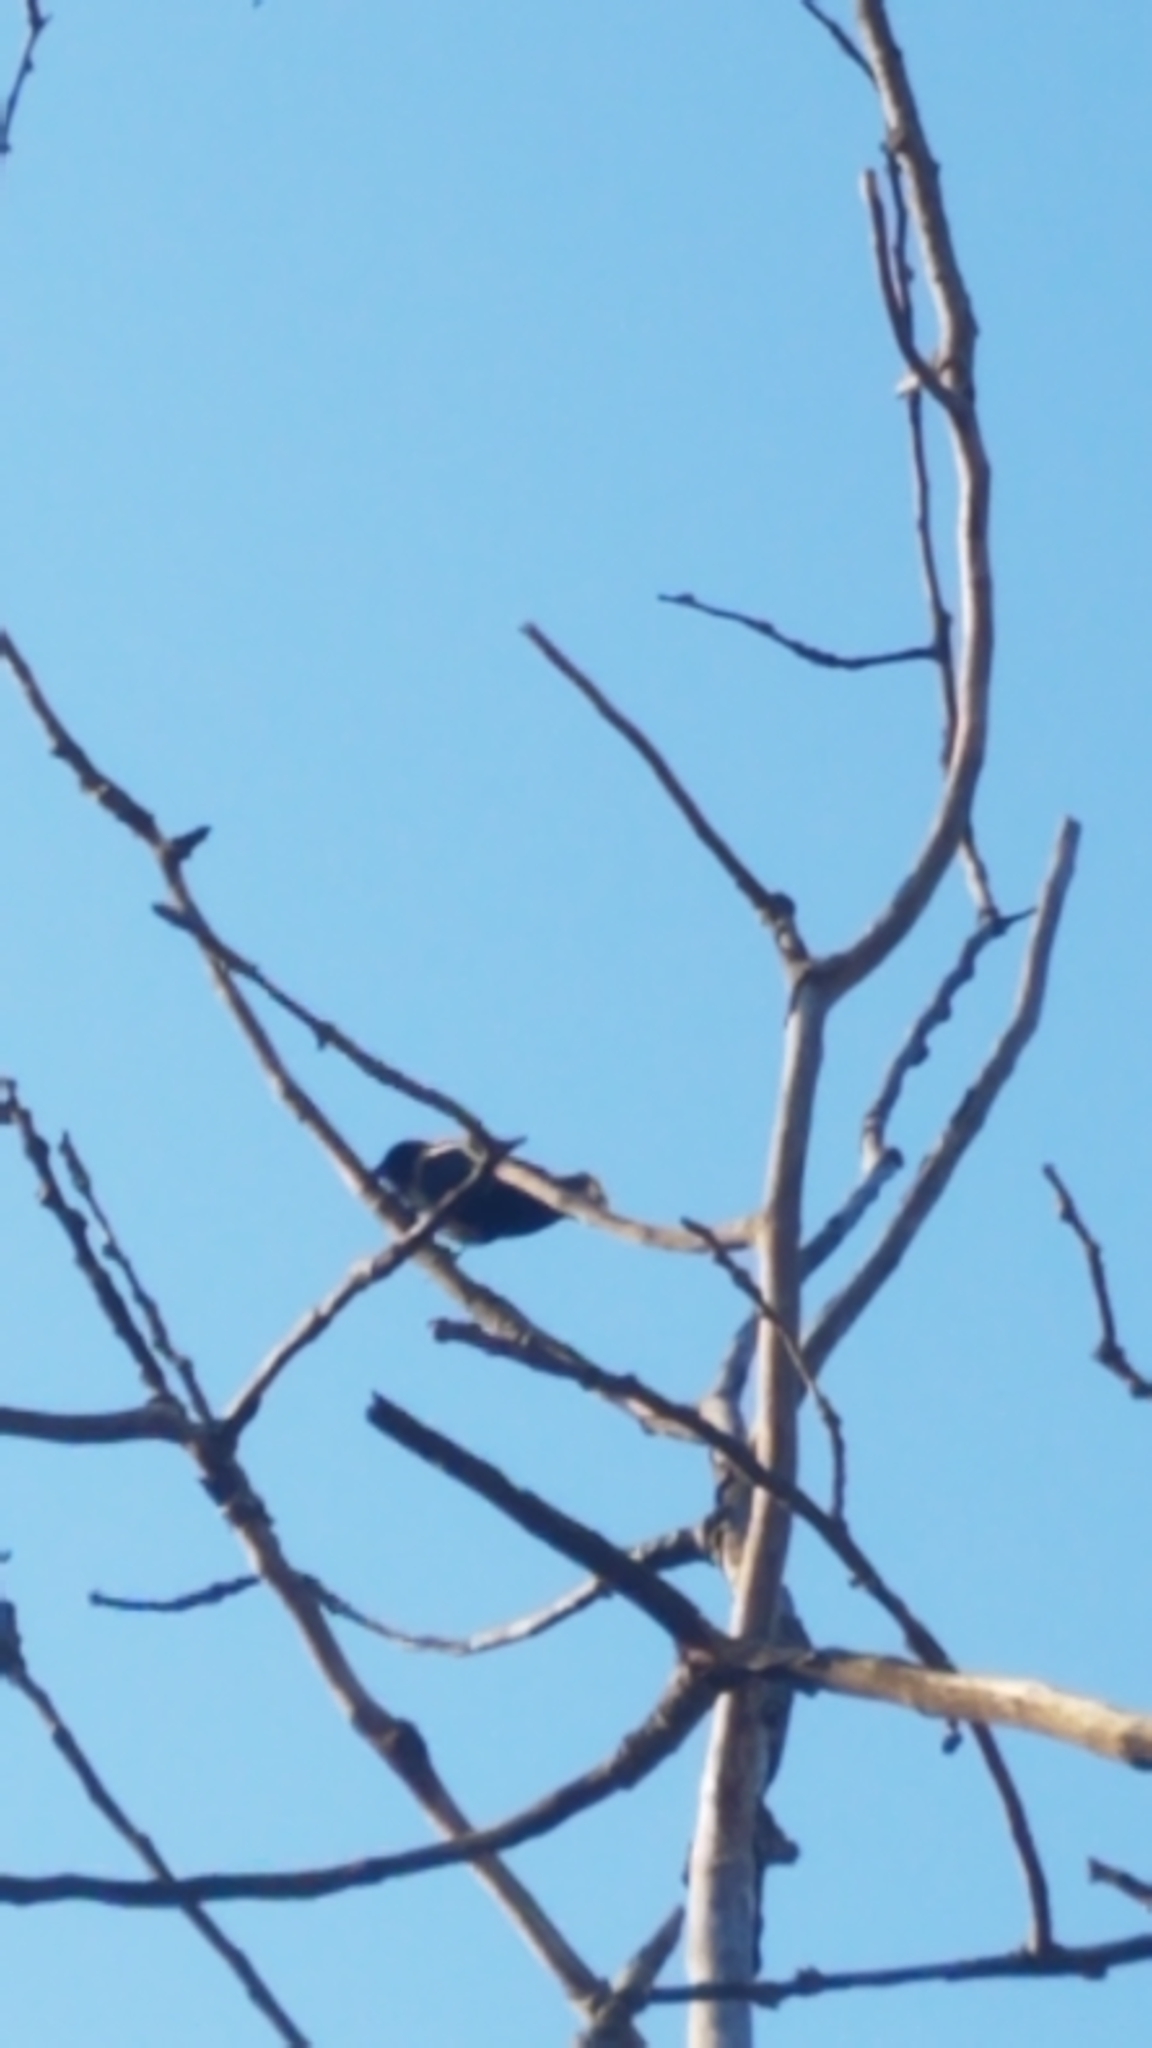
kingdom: Animalia
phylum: Chordata
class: Aves
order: Passeriformes
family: Icteridae
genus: Agelaius
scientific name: Agelaius phoeniceus
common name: Red-winged blackbird
